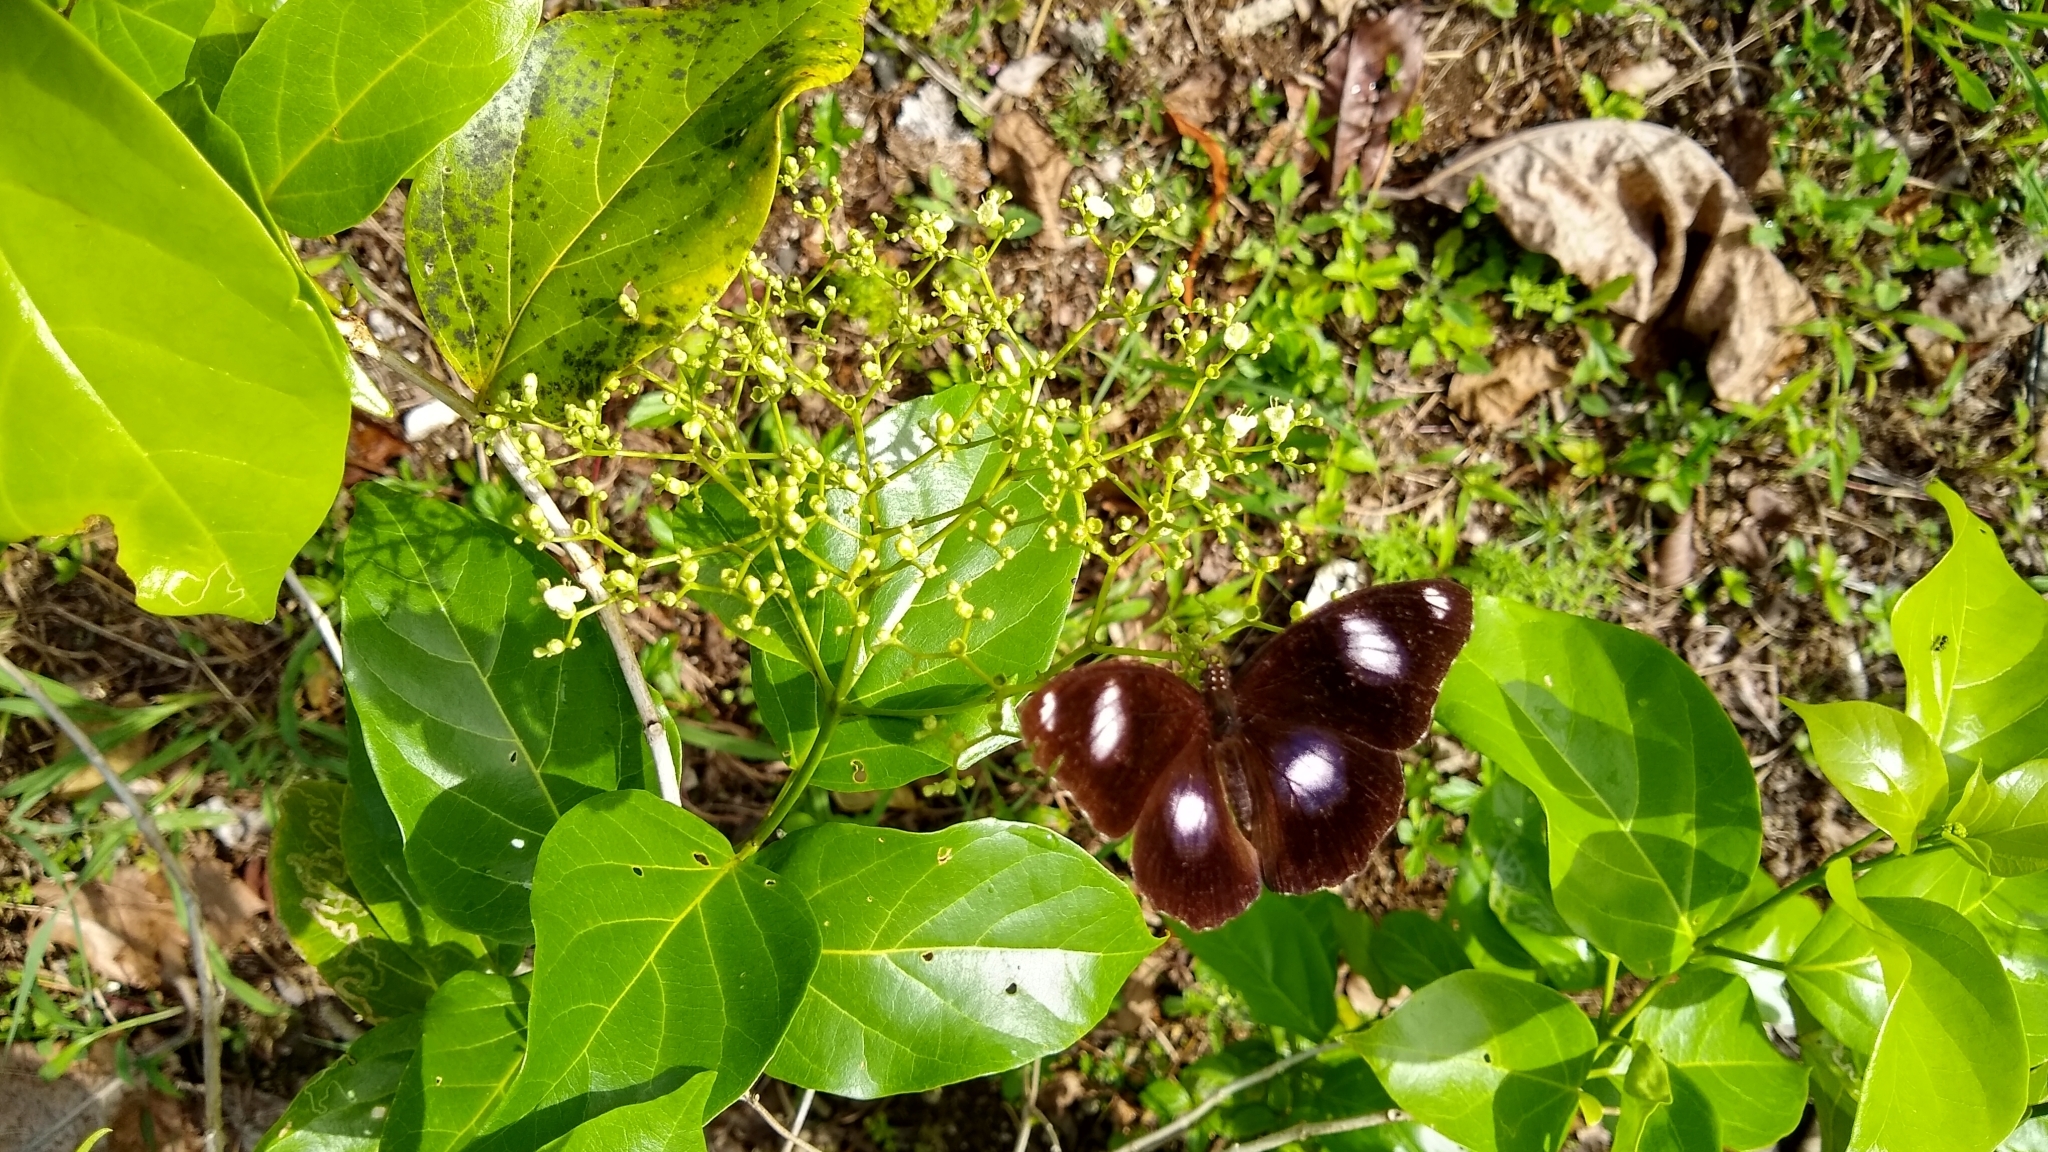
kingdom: Animalia
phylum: Arthropoda
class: Insecta
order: Lepidoptera
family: Nymphalidae
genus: Hypolimnas
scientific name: Hypolimnas bolina
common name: Great eggfly
